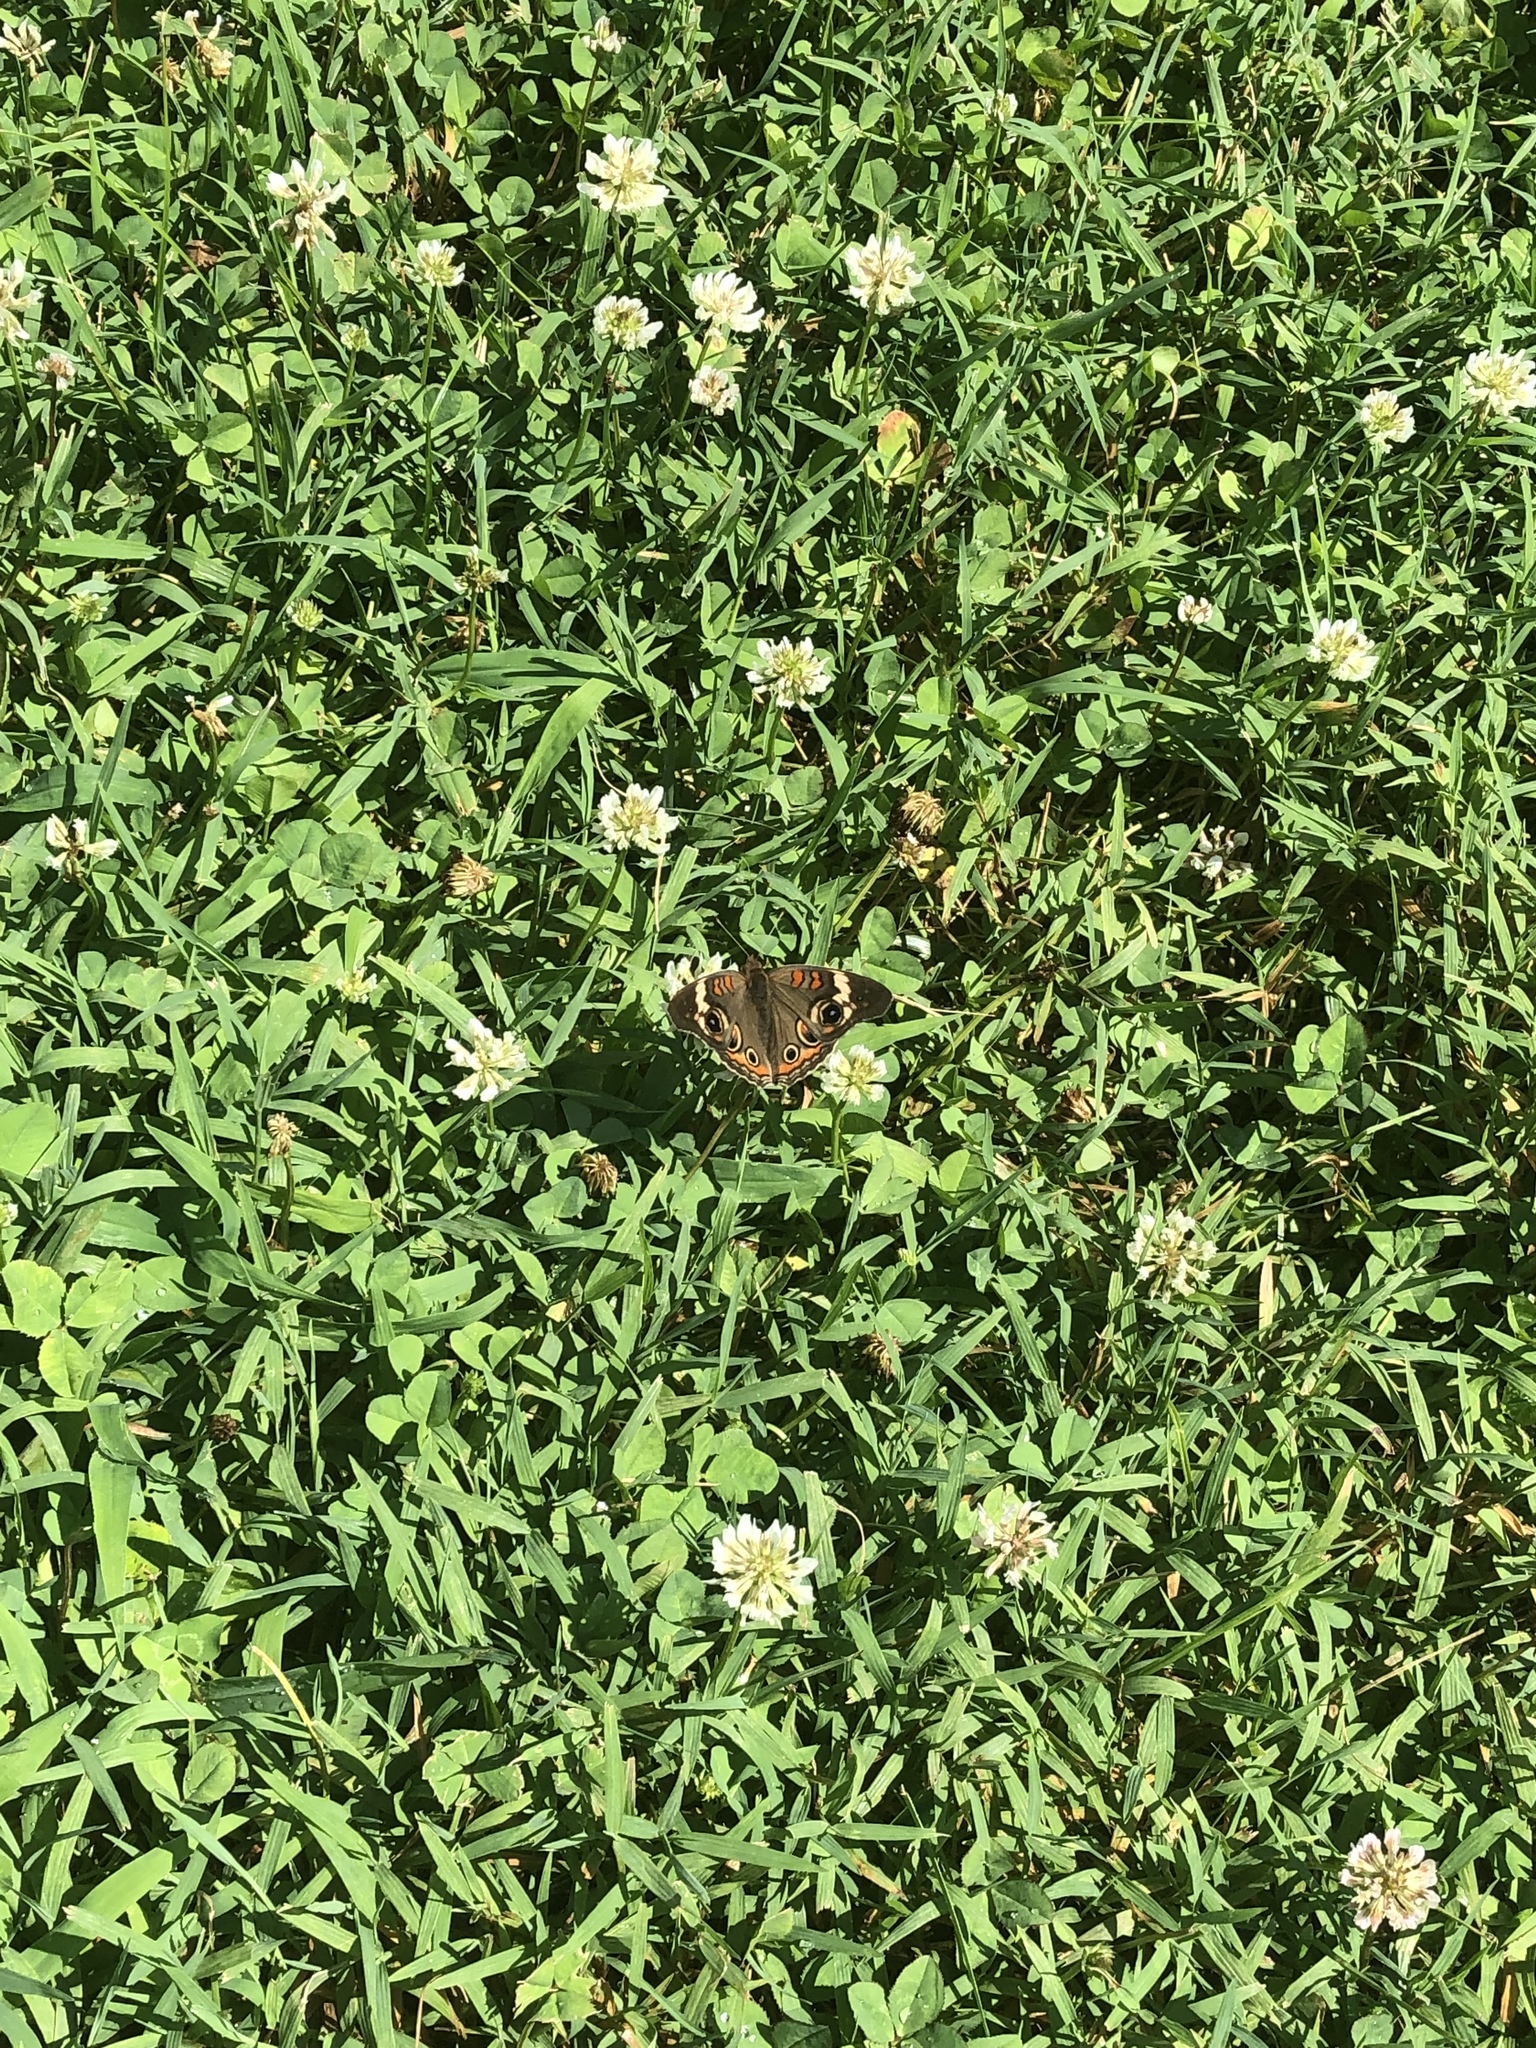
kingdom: Animalia
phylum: Arthropoda
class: Insecta
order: Lepidoptera
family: Nymphalidae
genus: Junonia
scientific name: Junonia coenia
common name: Common buckeye
